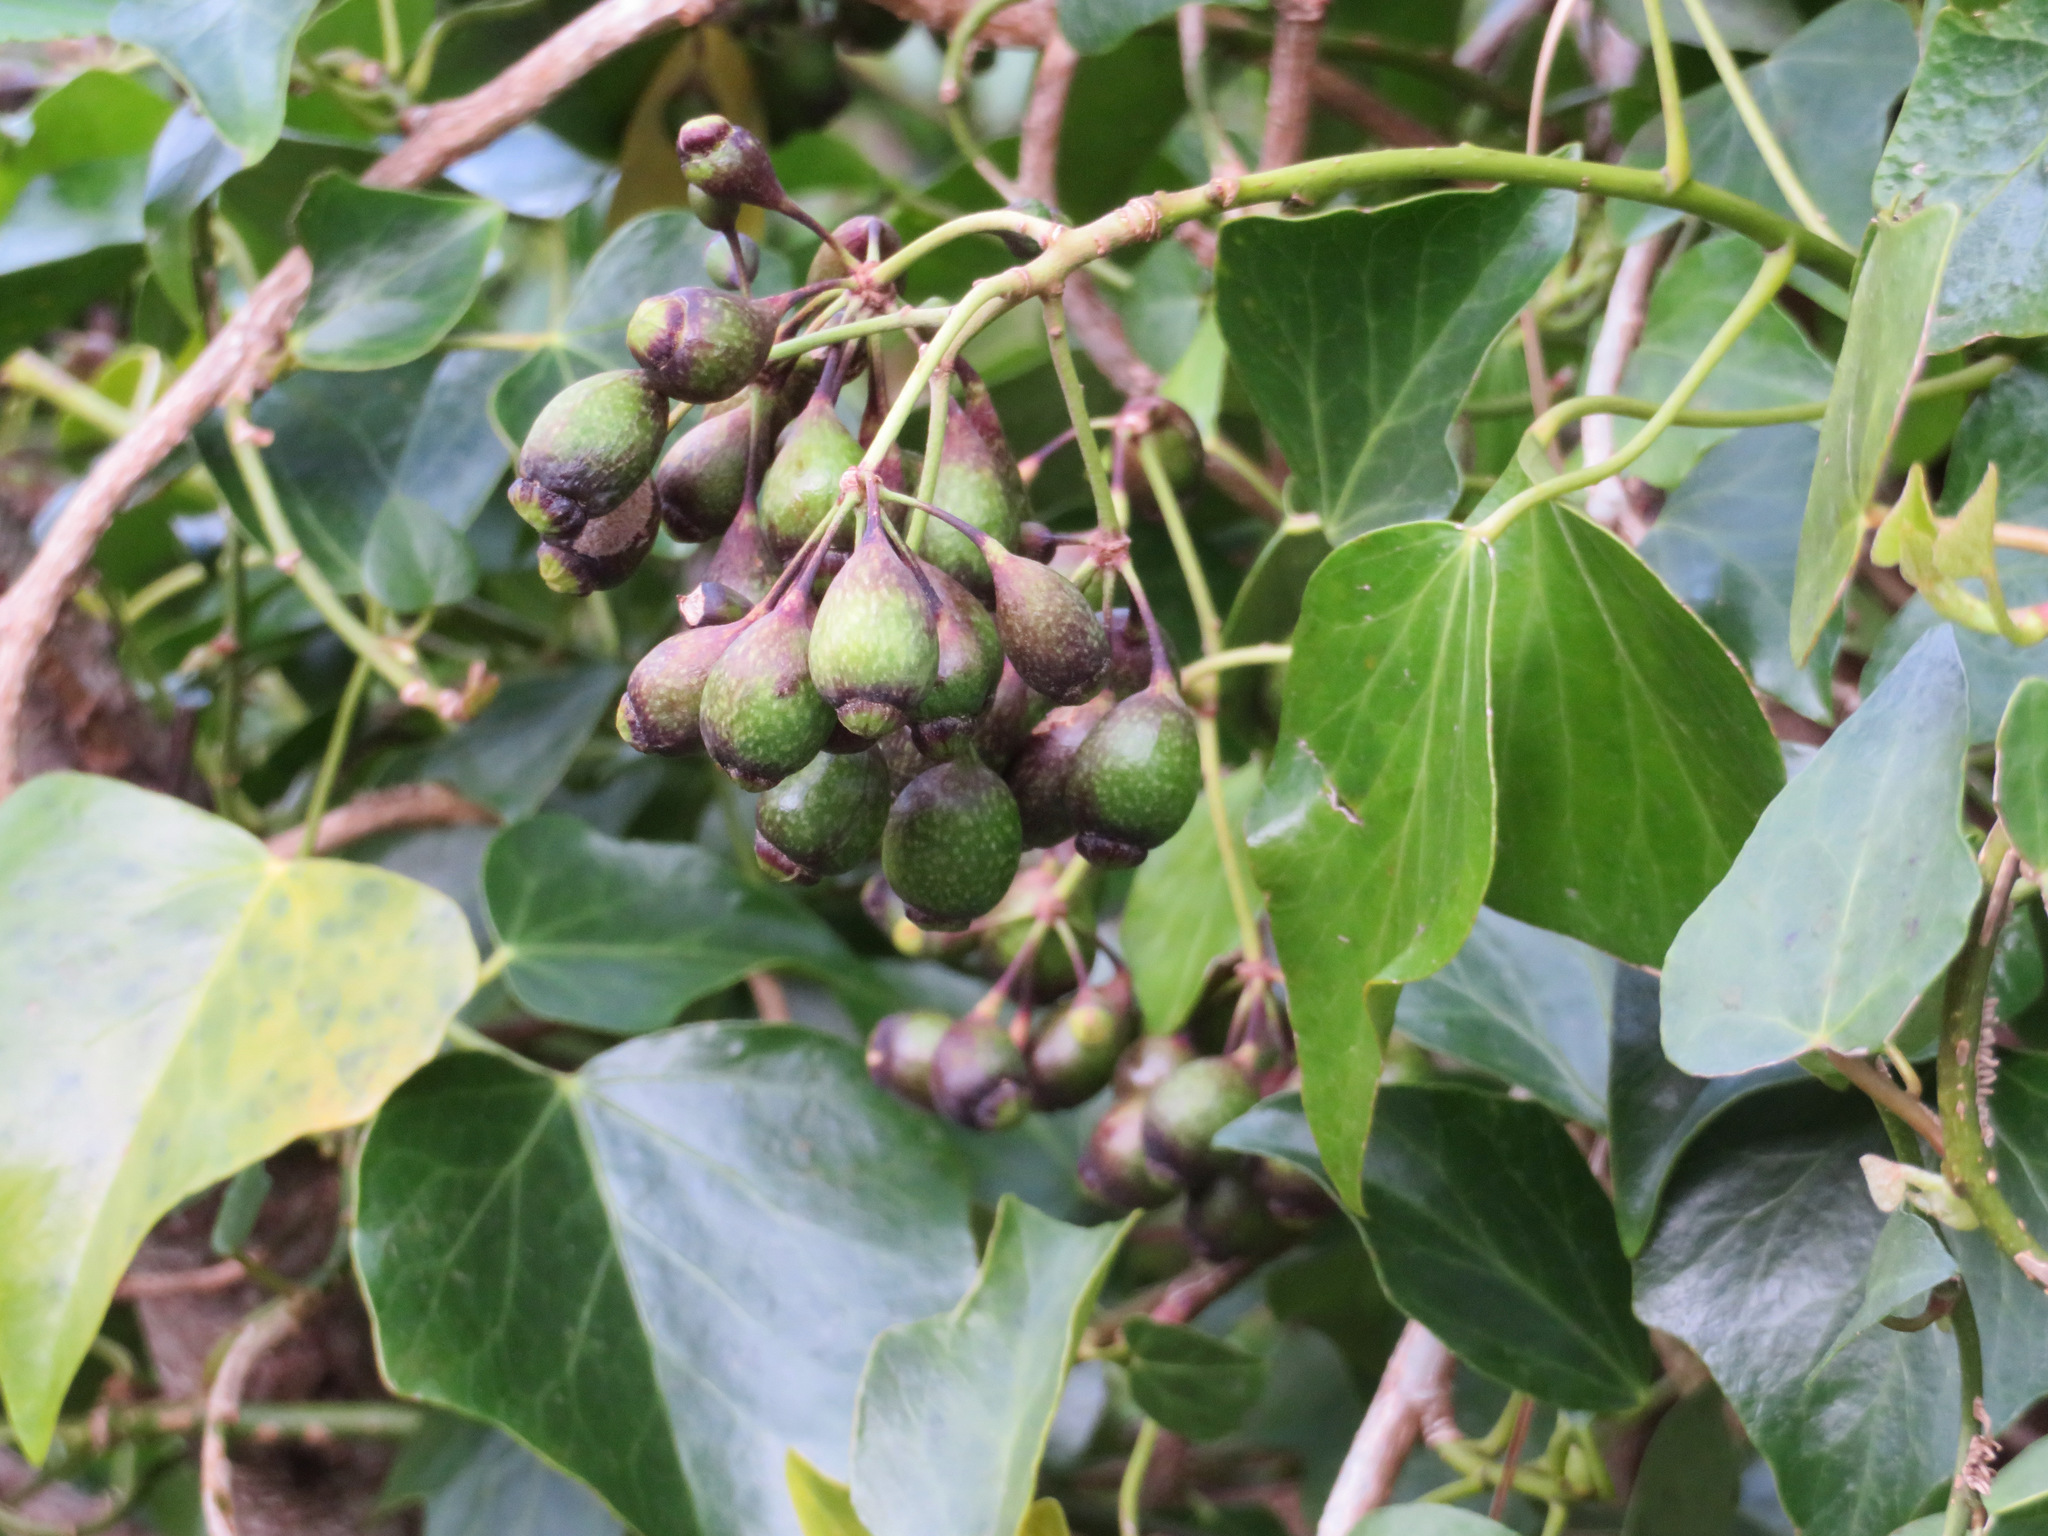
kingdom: Plantae
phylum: Tracheophyta
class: Magnoliopsida
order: Apiales
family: Araliaceae
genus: Hedera
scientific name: Hedera rhombea
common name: Japanese ivy
